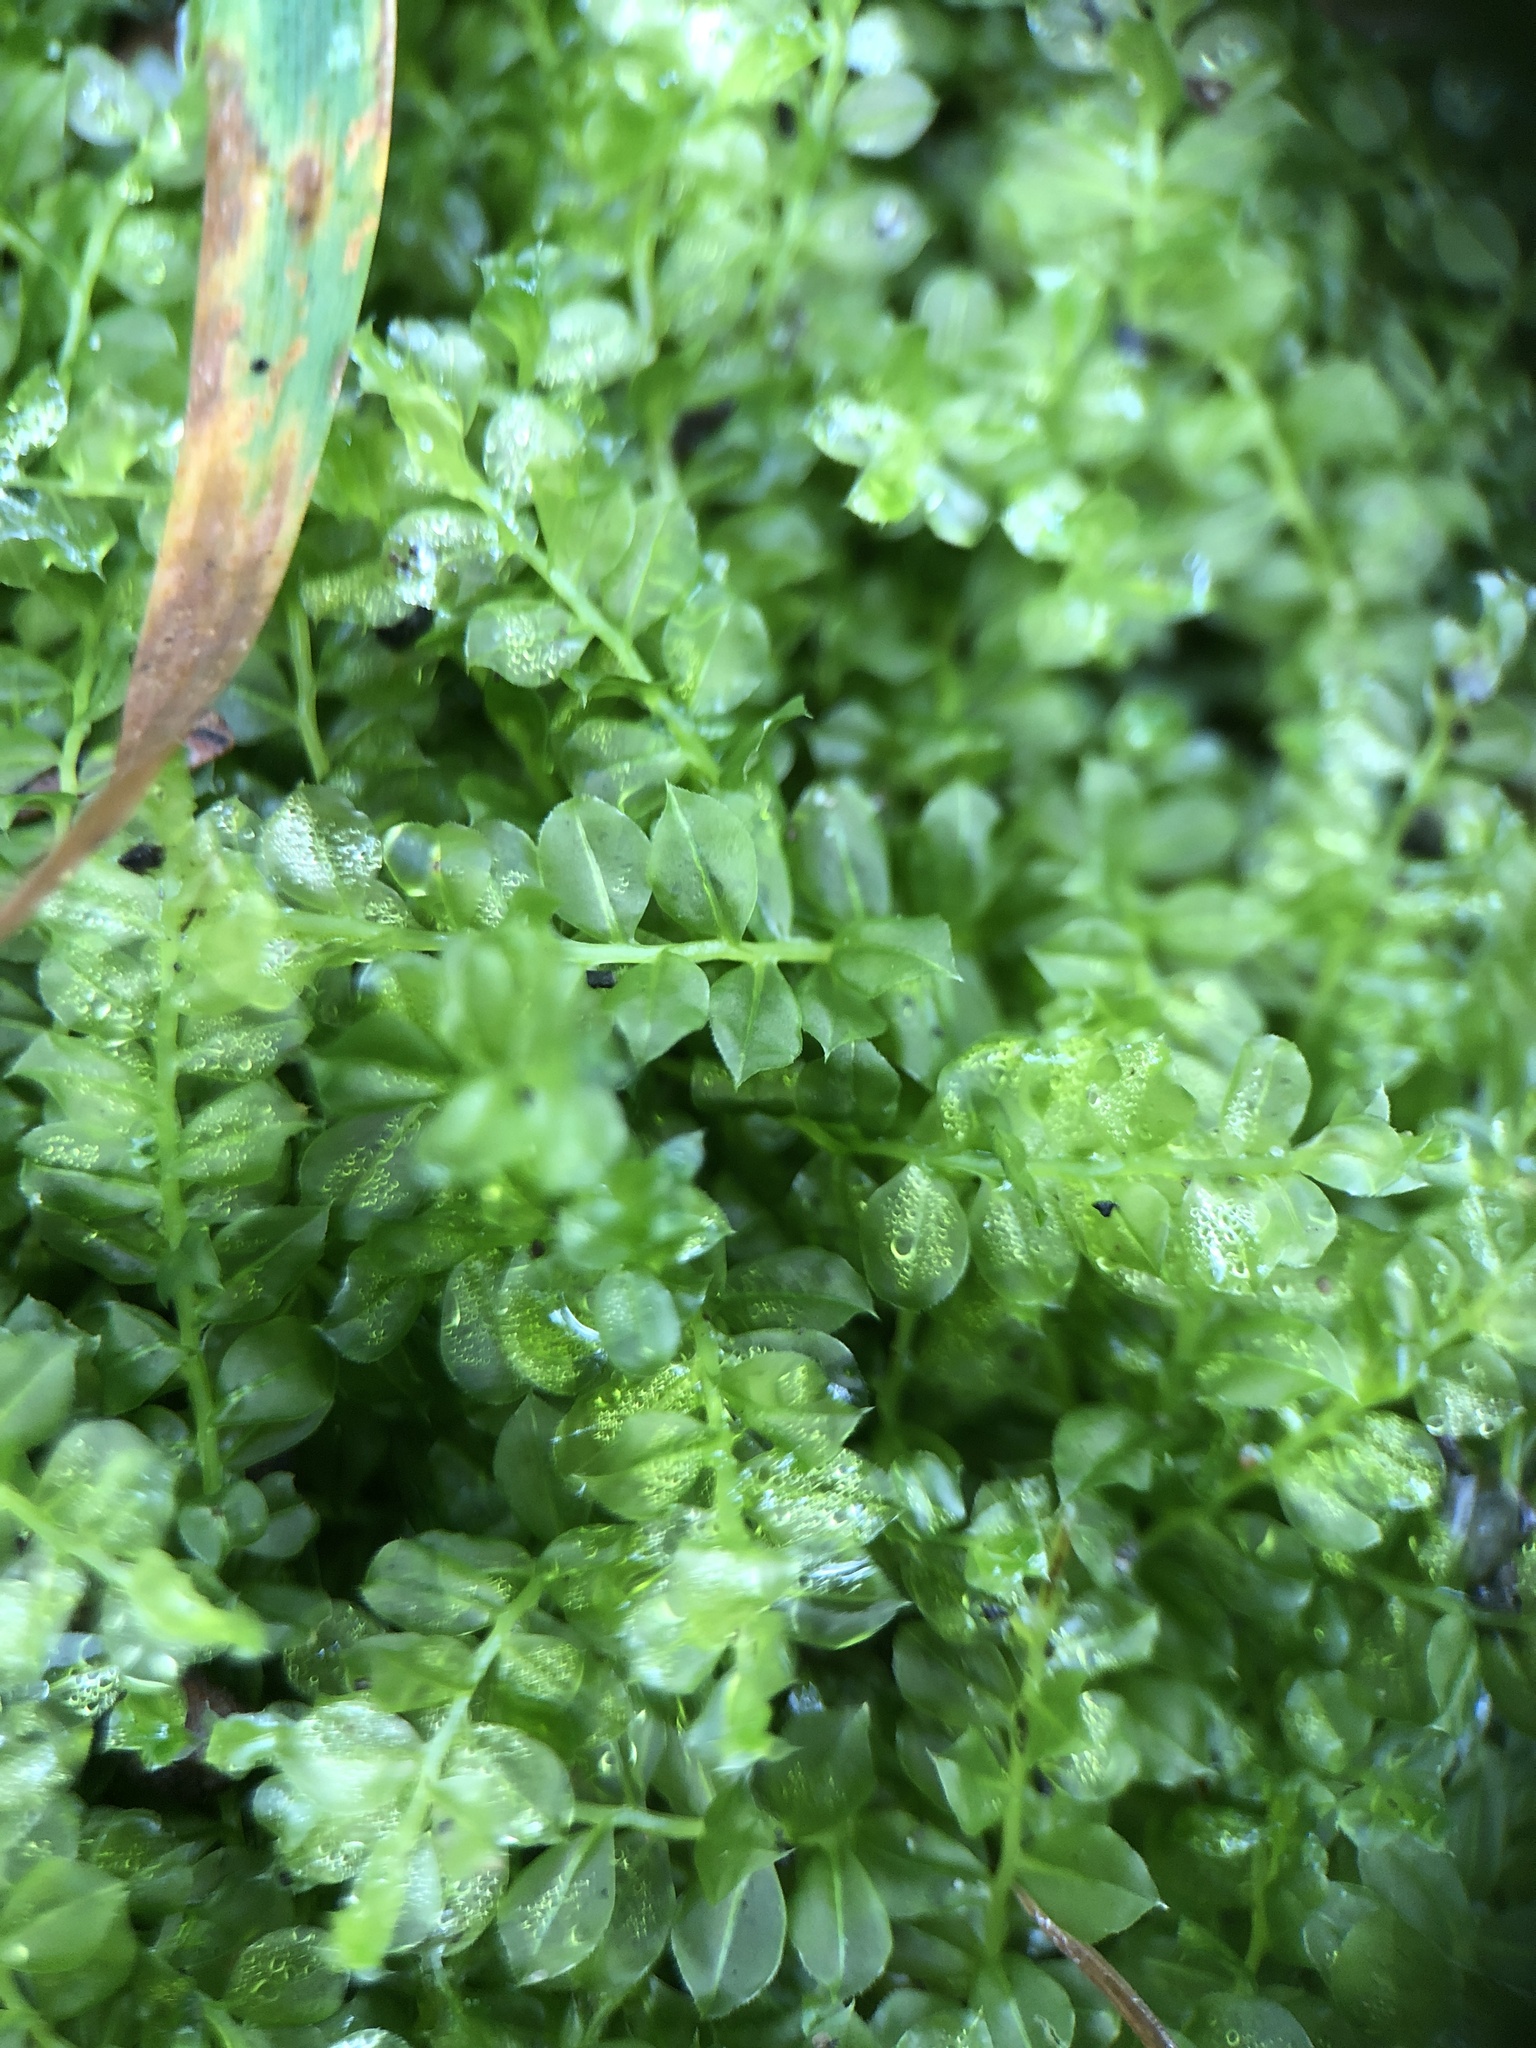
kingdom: Plantae
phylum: Bryophyta
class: Bryopsida
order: Bryales
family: Mniaceae
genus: Plagiomnium
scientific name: Plagiomnium cuspidatum
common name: Woodsy leafy moss
